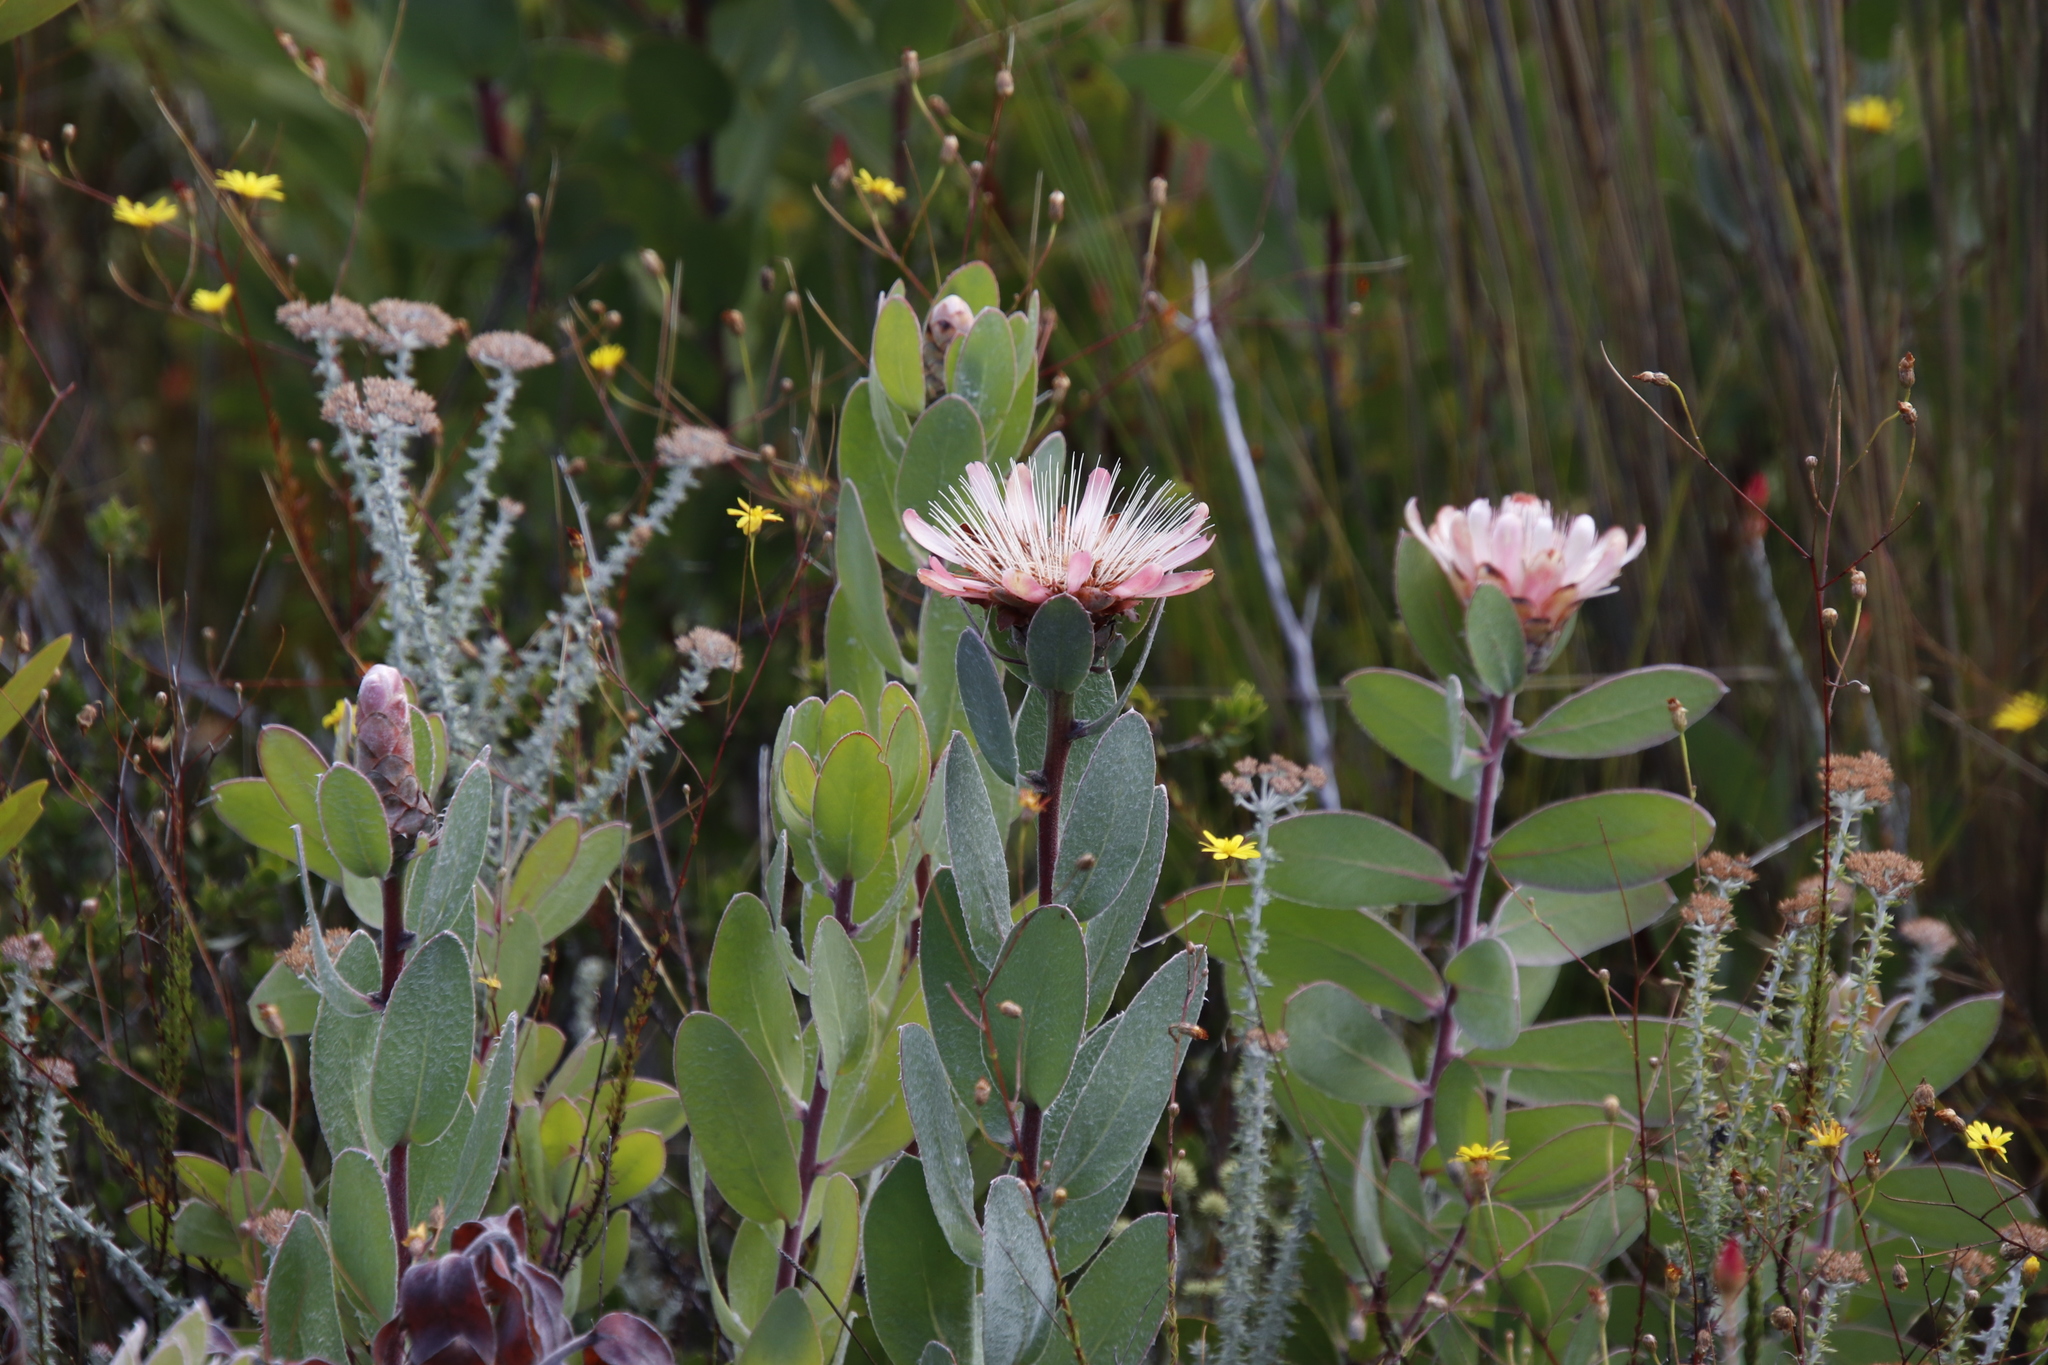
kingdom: Plantae
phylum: Tracheophyta
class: Magnoliopsida
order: Proteales
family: Proteaceae
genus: Protea
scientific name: Protea punctata
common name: Water sugarbush
